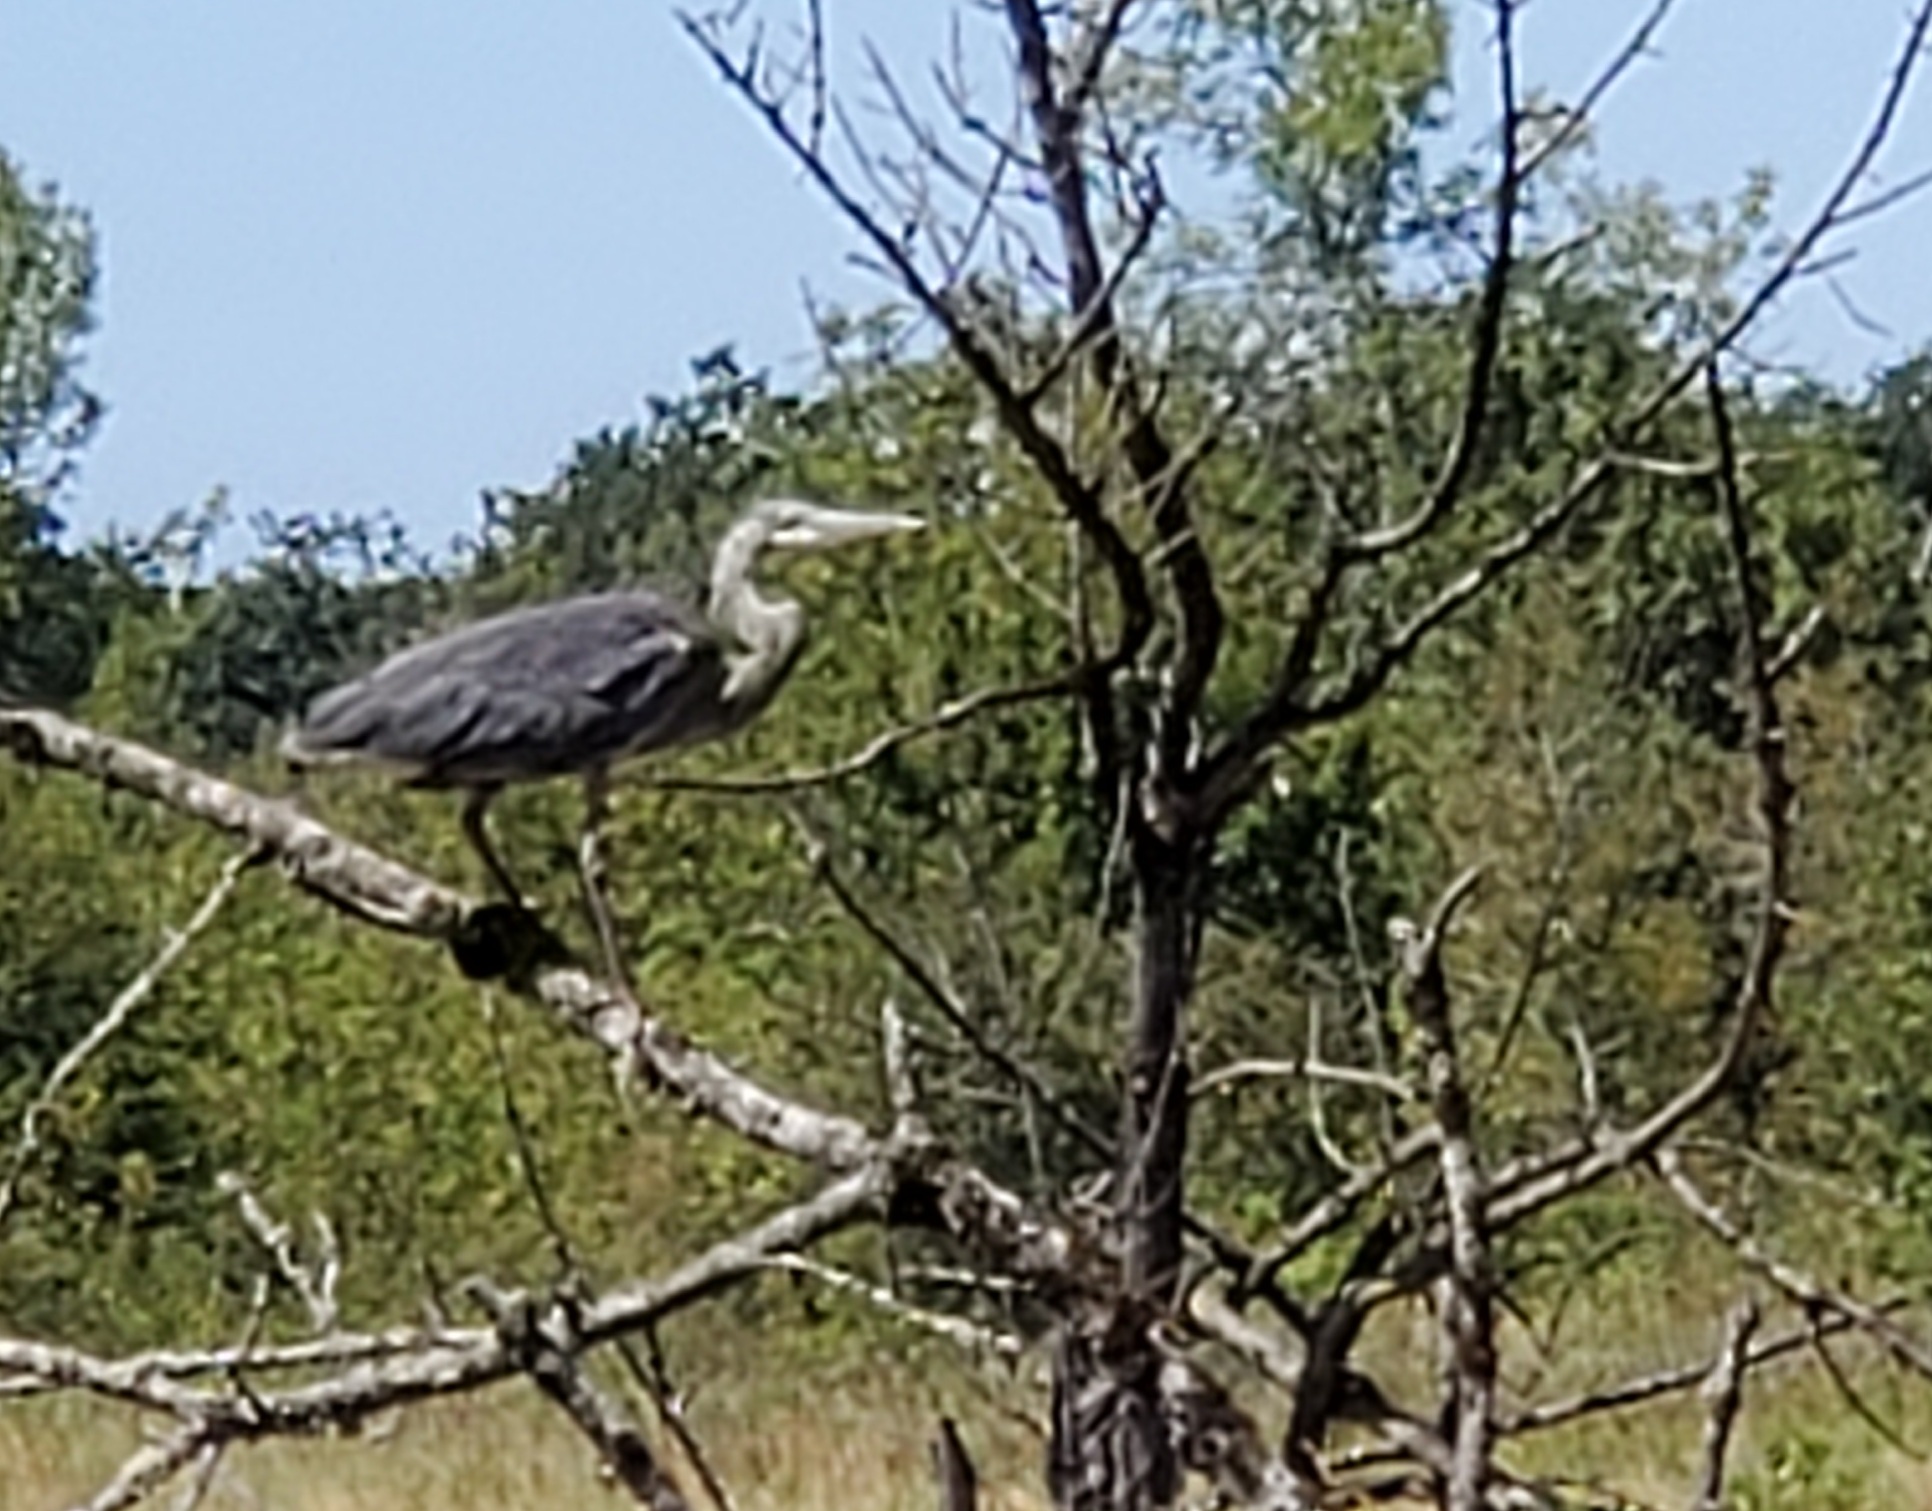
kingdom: Animalia
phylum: Chordata
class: Aves
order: Pelecaniformes
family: Ardeidae
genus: Ardea
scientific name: Ardea herodias
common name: Great blue heron
